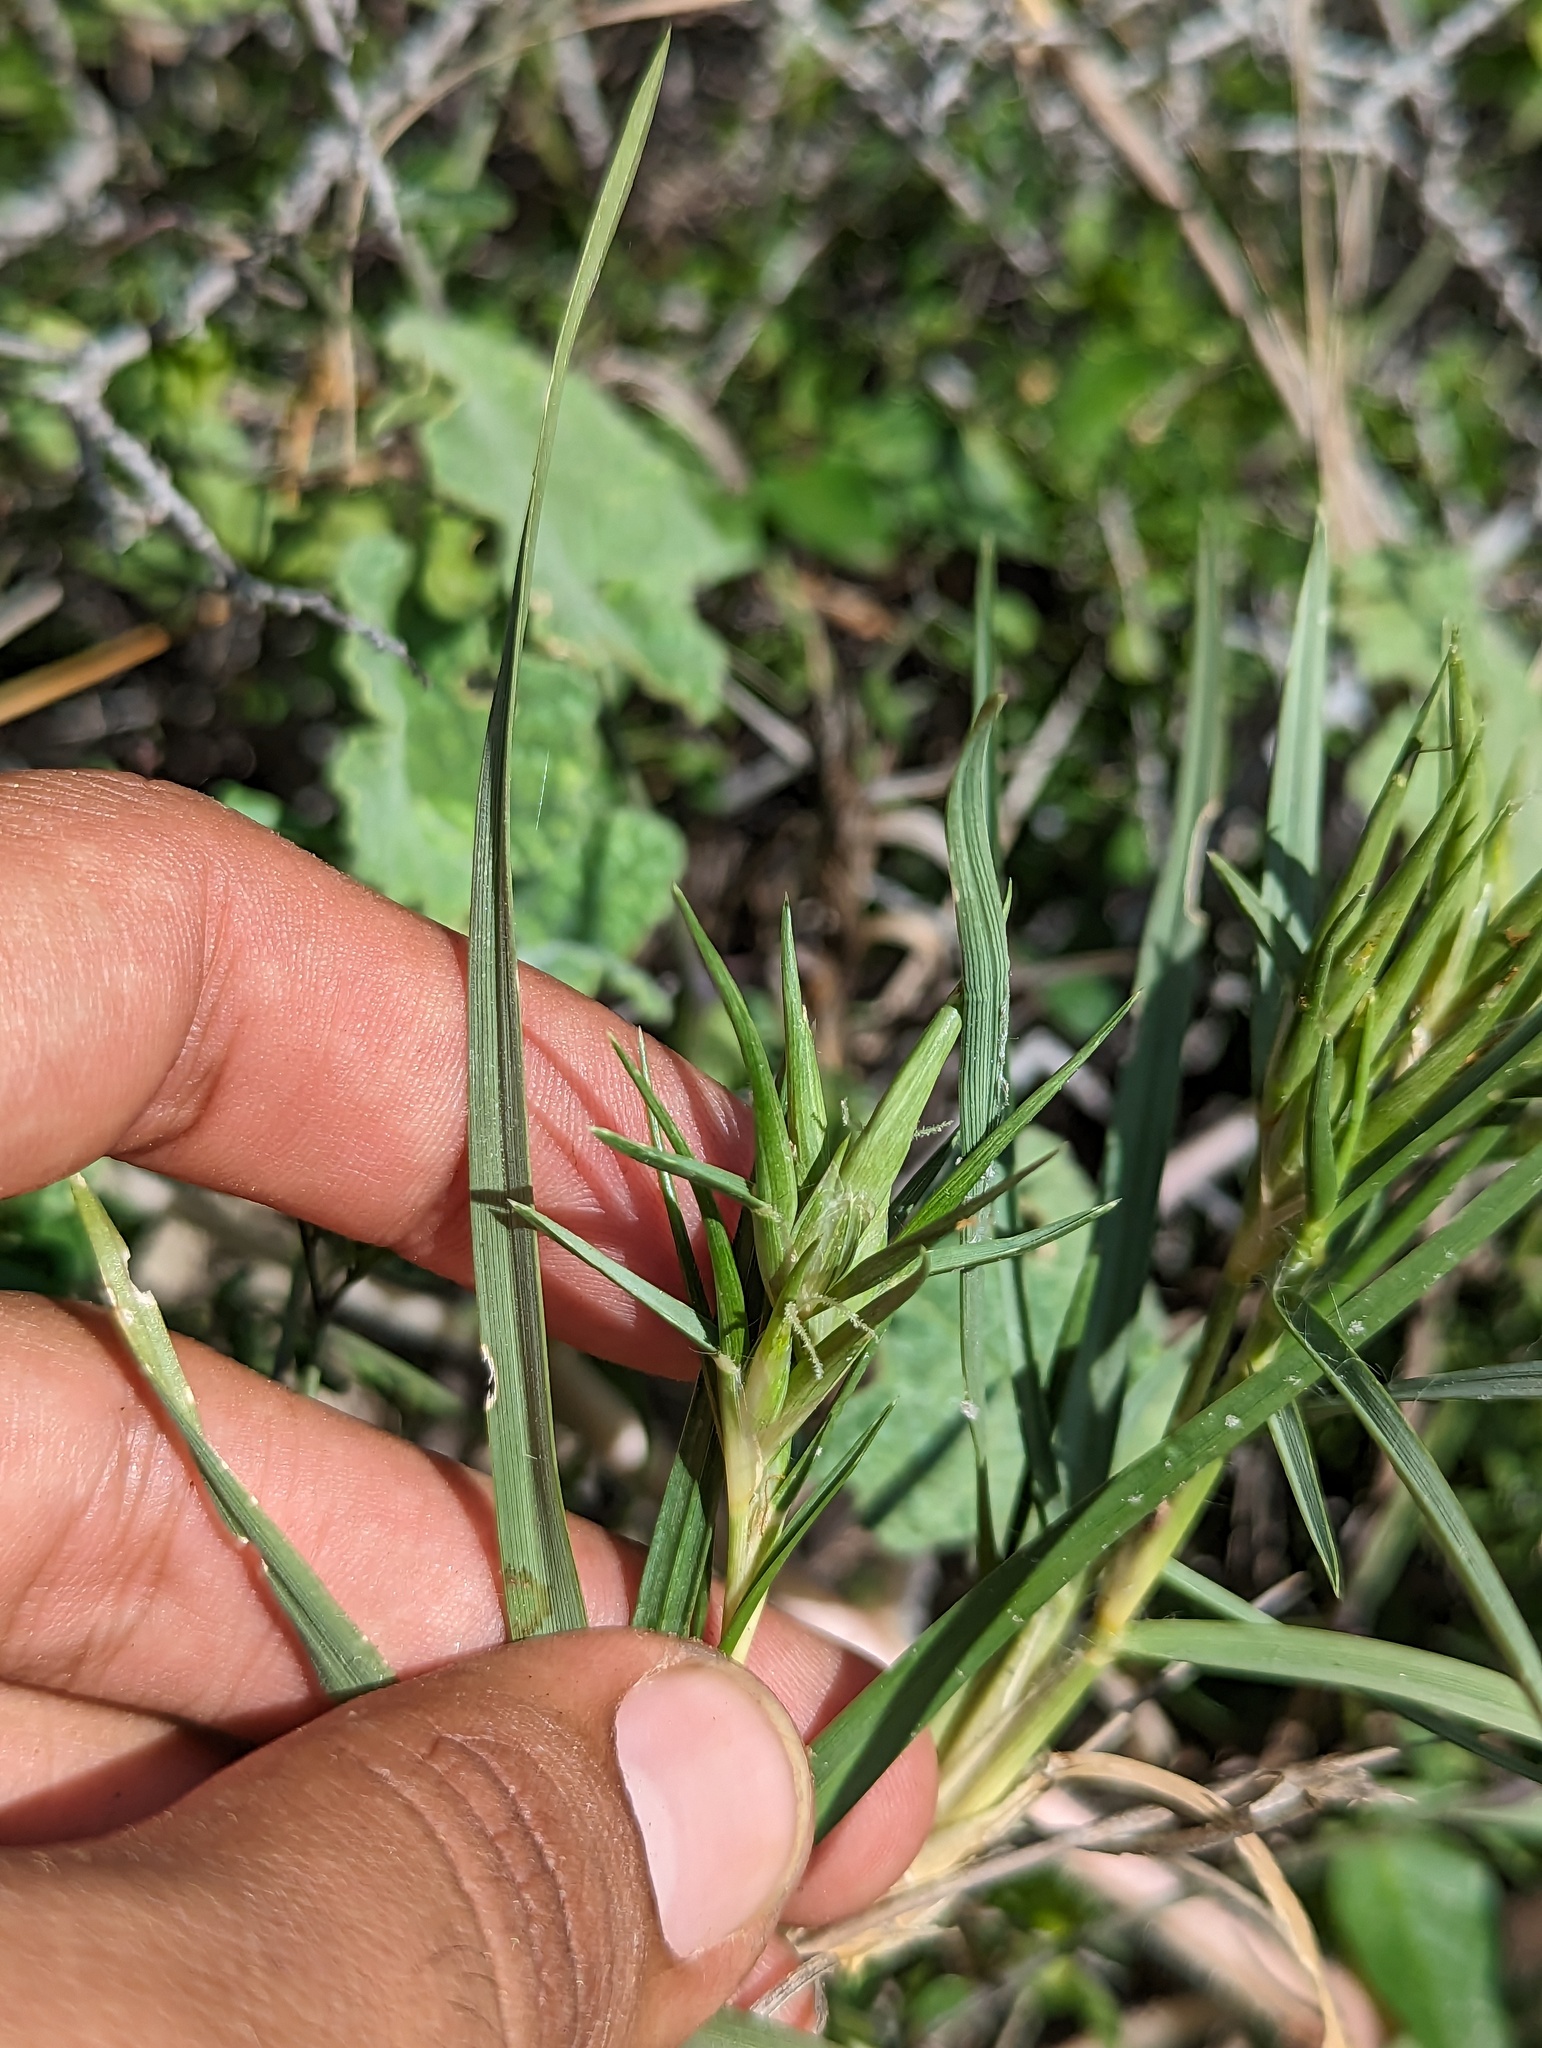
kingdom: Plantae
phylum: Tracheophyta
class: Liliopsida
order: Poales
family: Poaceae
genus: Jouvea
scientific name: Jouvea pilosa
